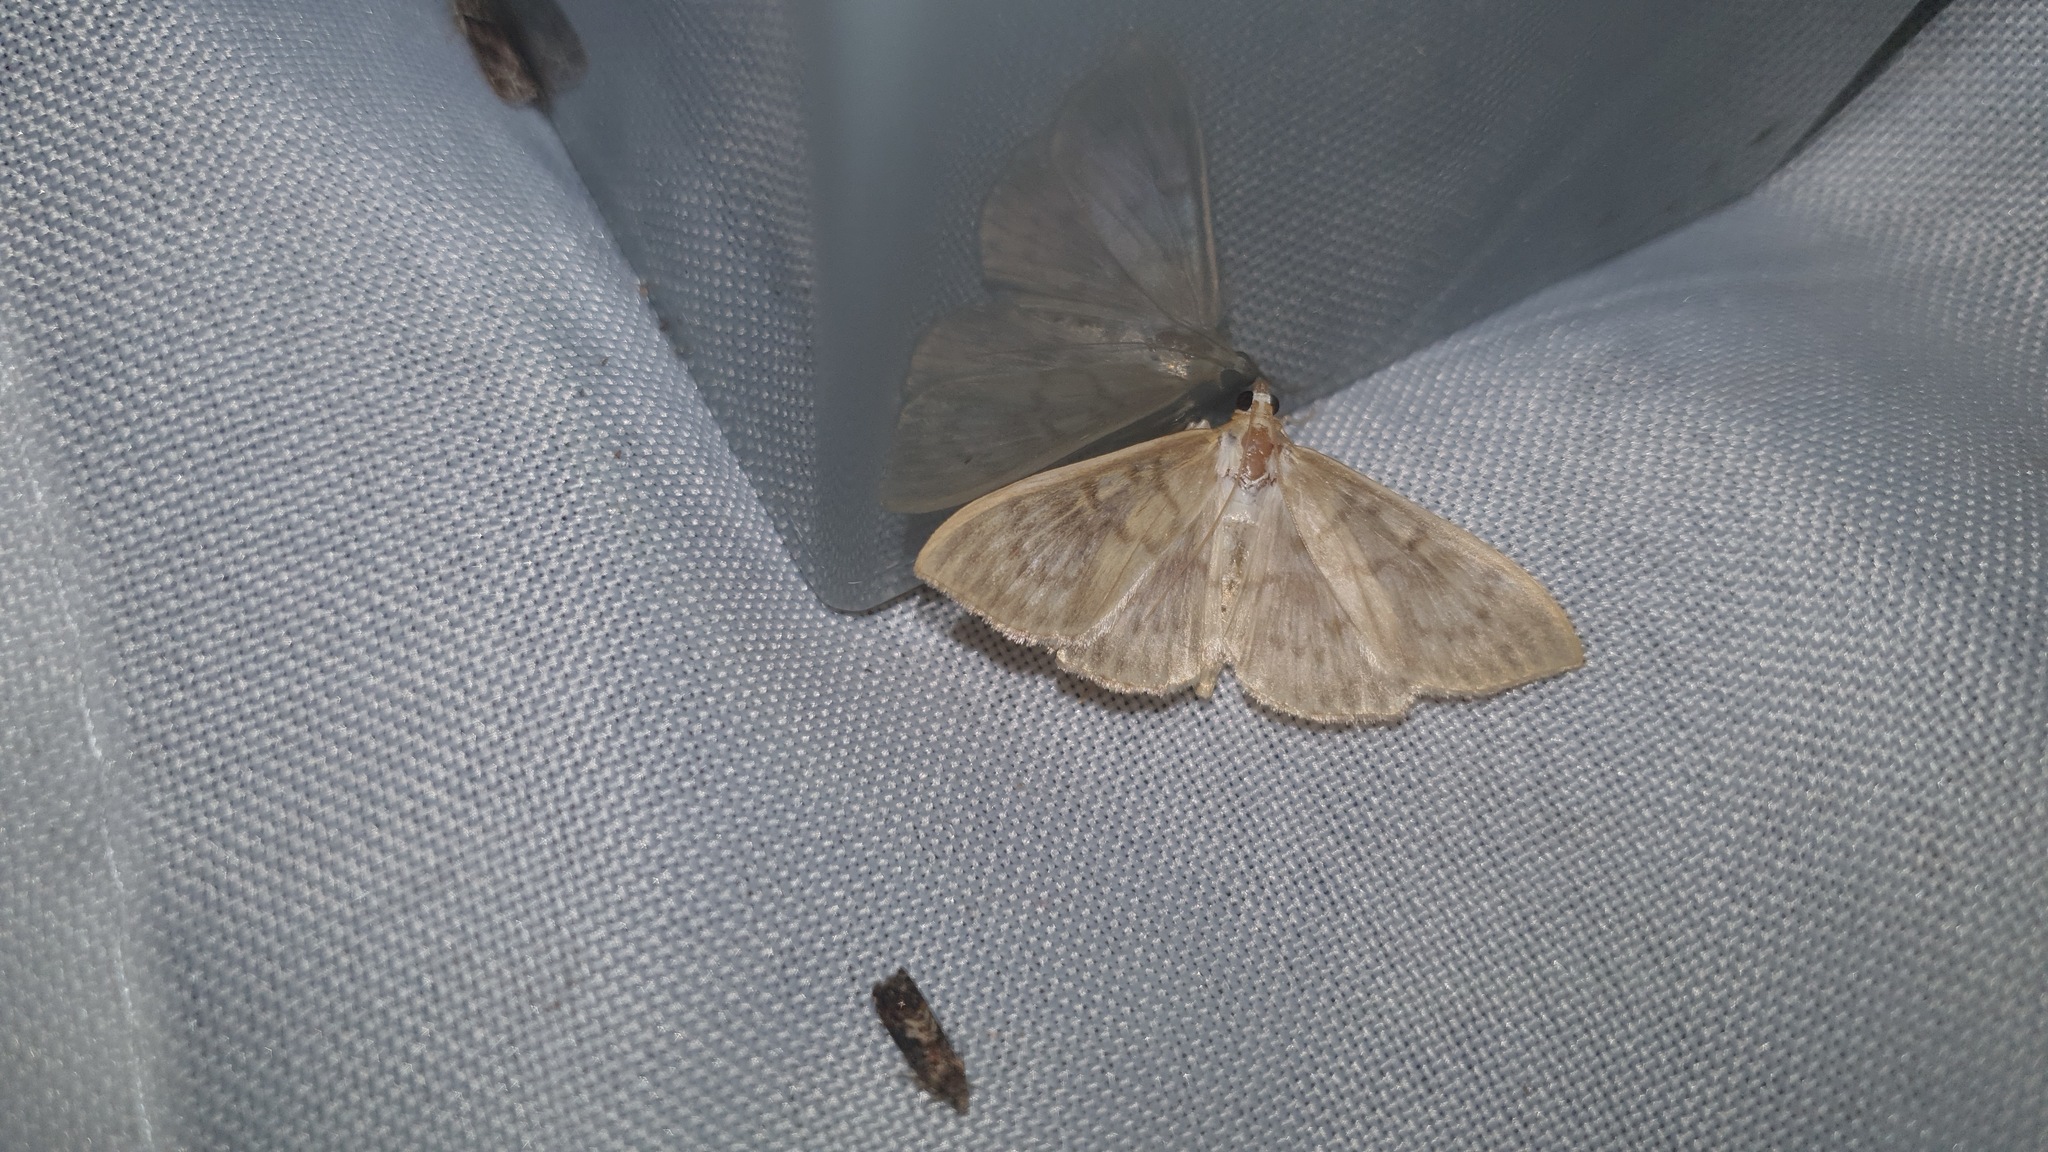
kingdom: Animalia
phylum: Arthropoda
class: Insecta
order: Lepidoptera
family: Crambidae
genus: Patania
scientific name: Patania ruralis
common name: Mother of pearl
